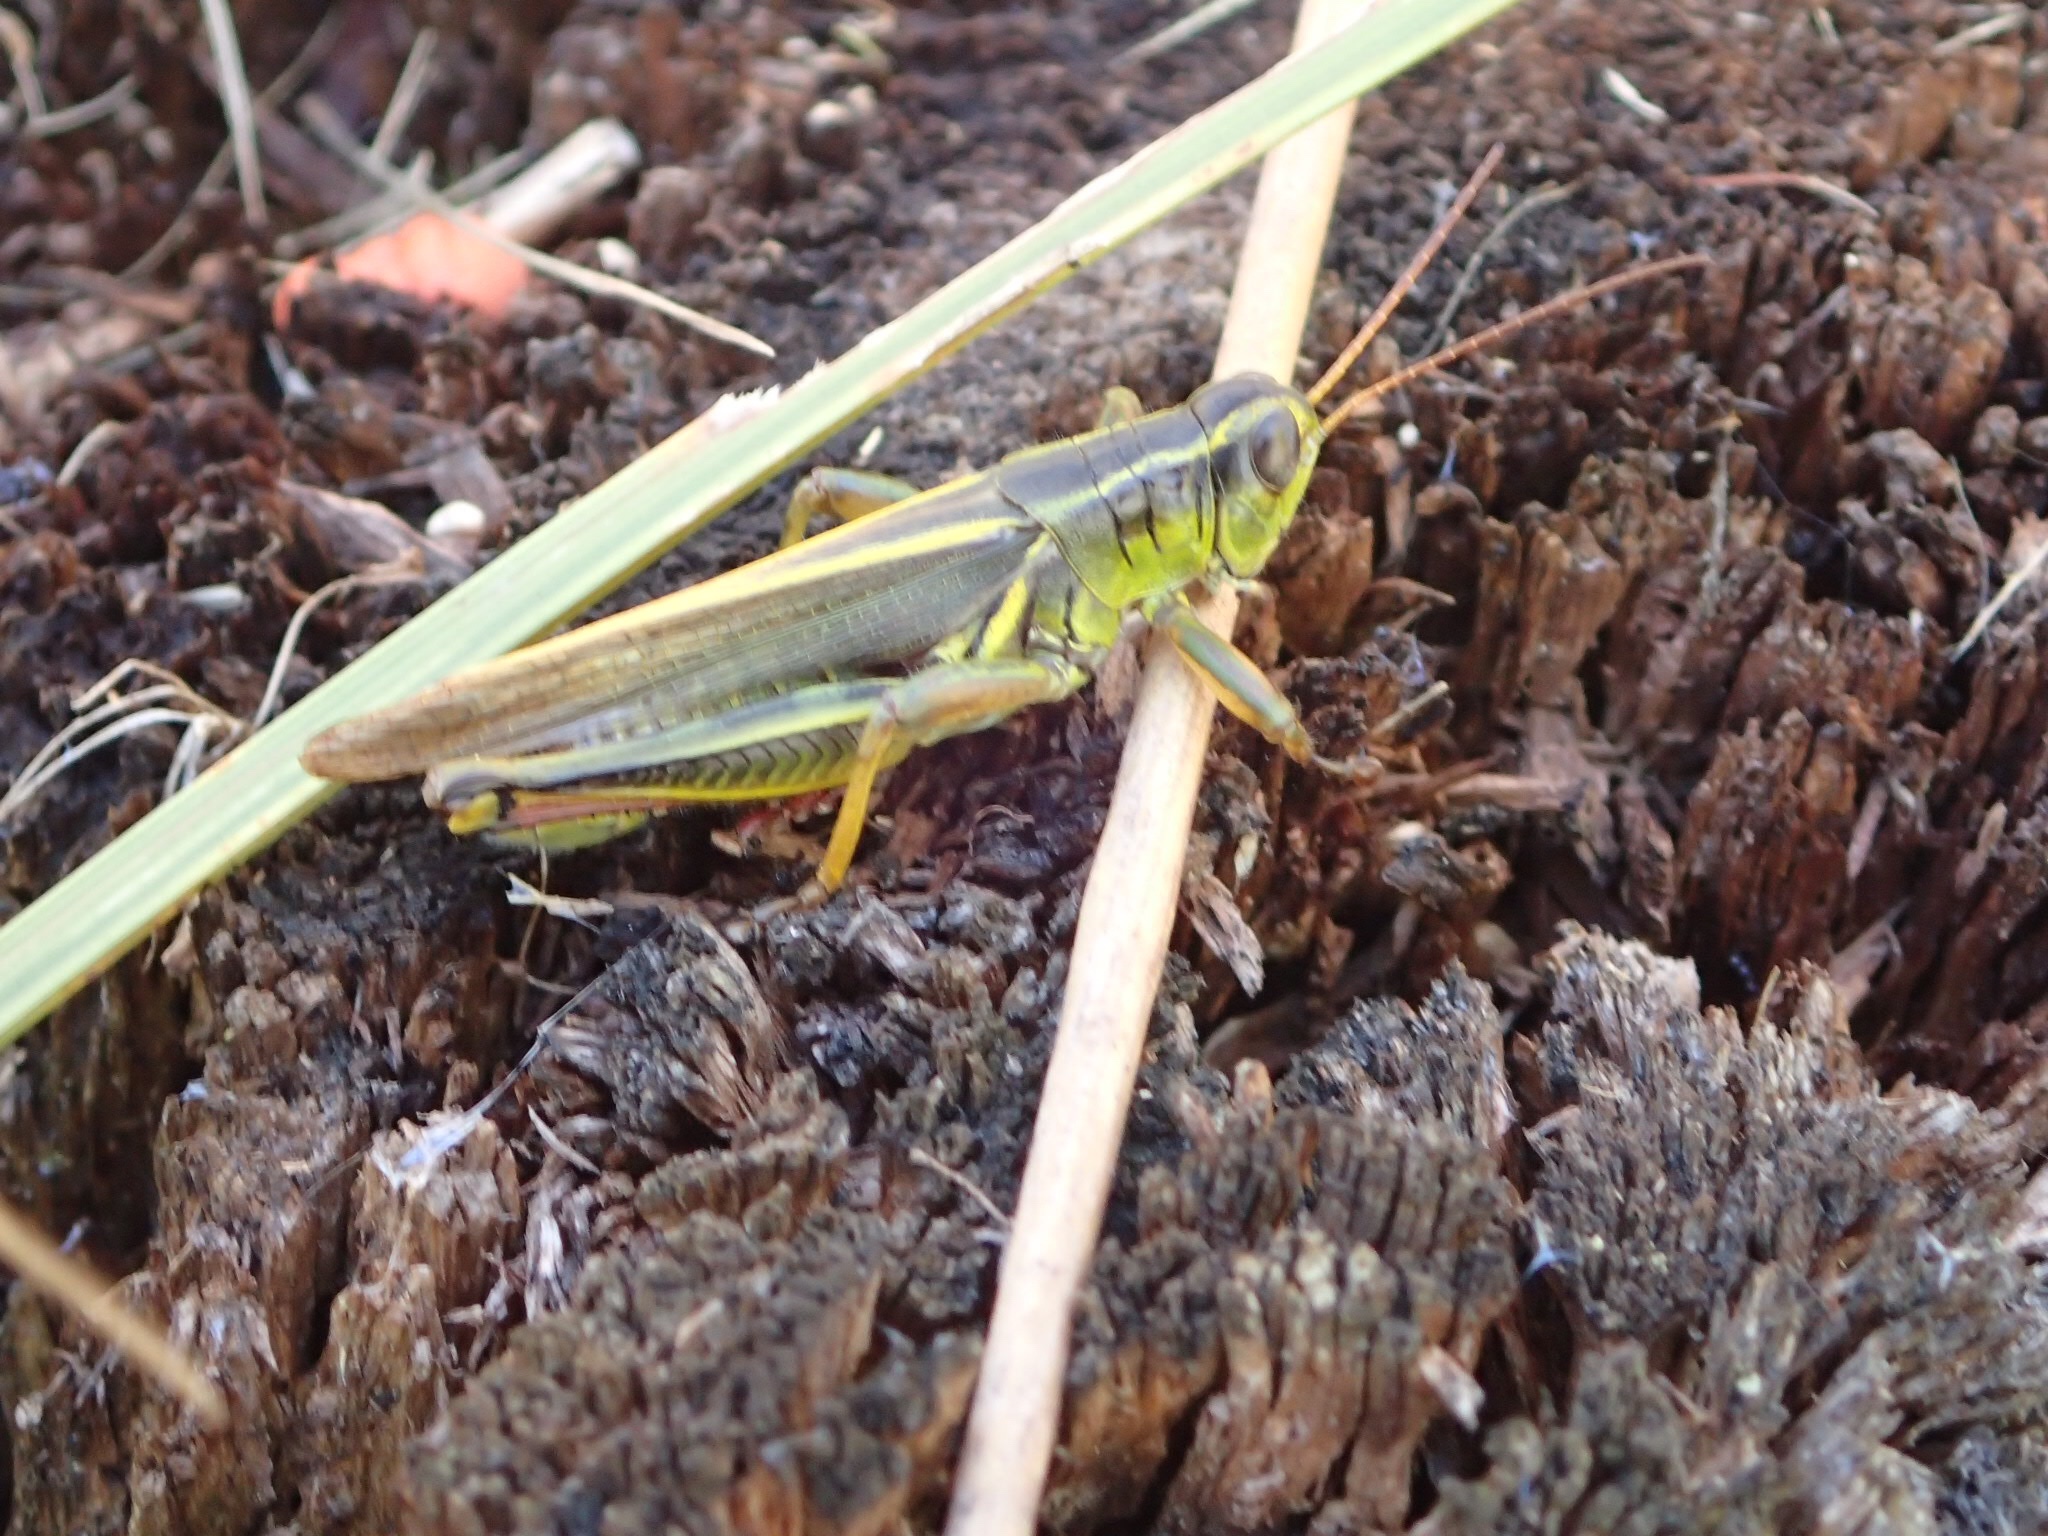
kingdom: Animalia
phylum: Arthropoda
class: Insecta
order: Orthoptera
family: Acrididae
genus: Melanoplus
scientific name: Melanoplus bivittatus
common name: Two-striped grasshopper
